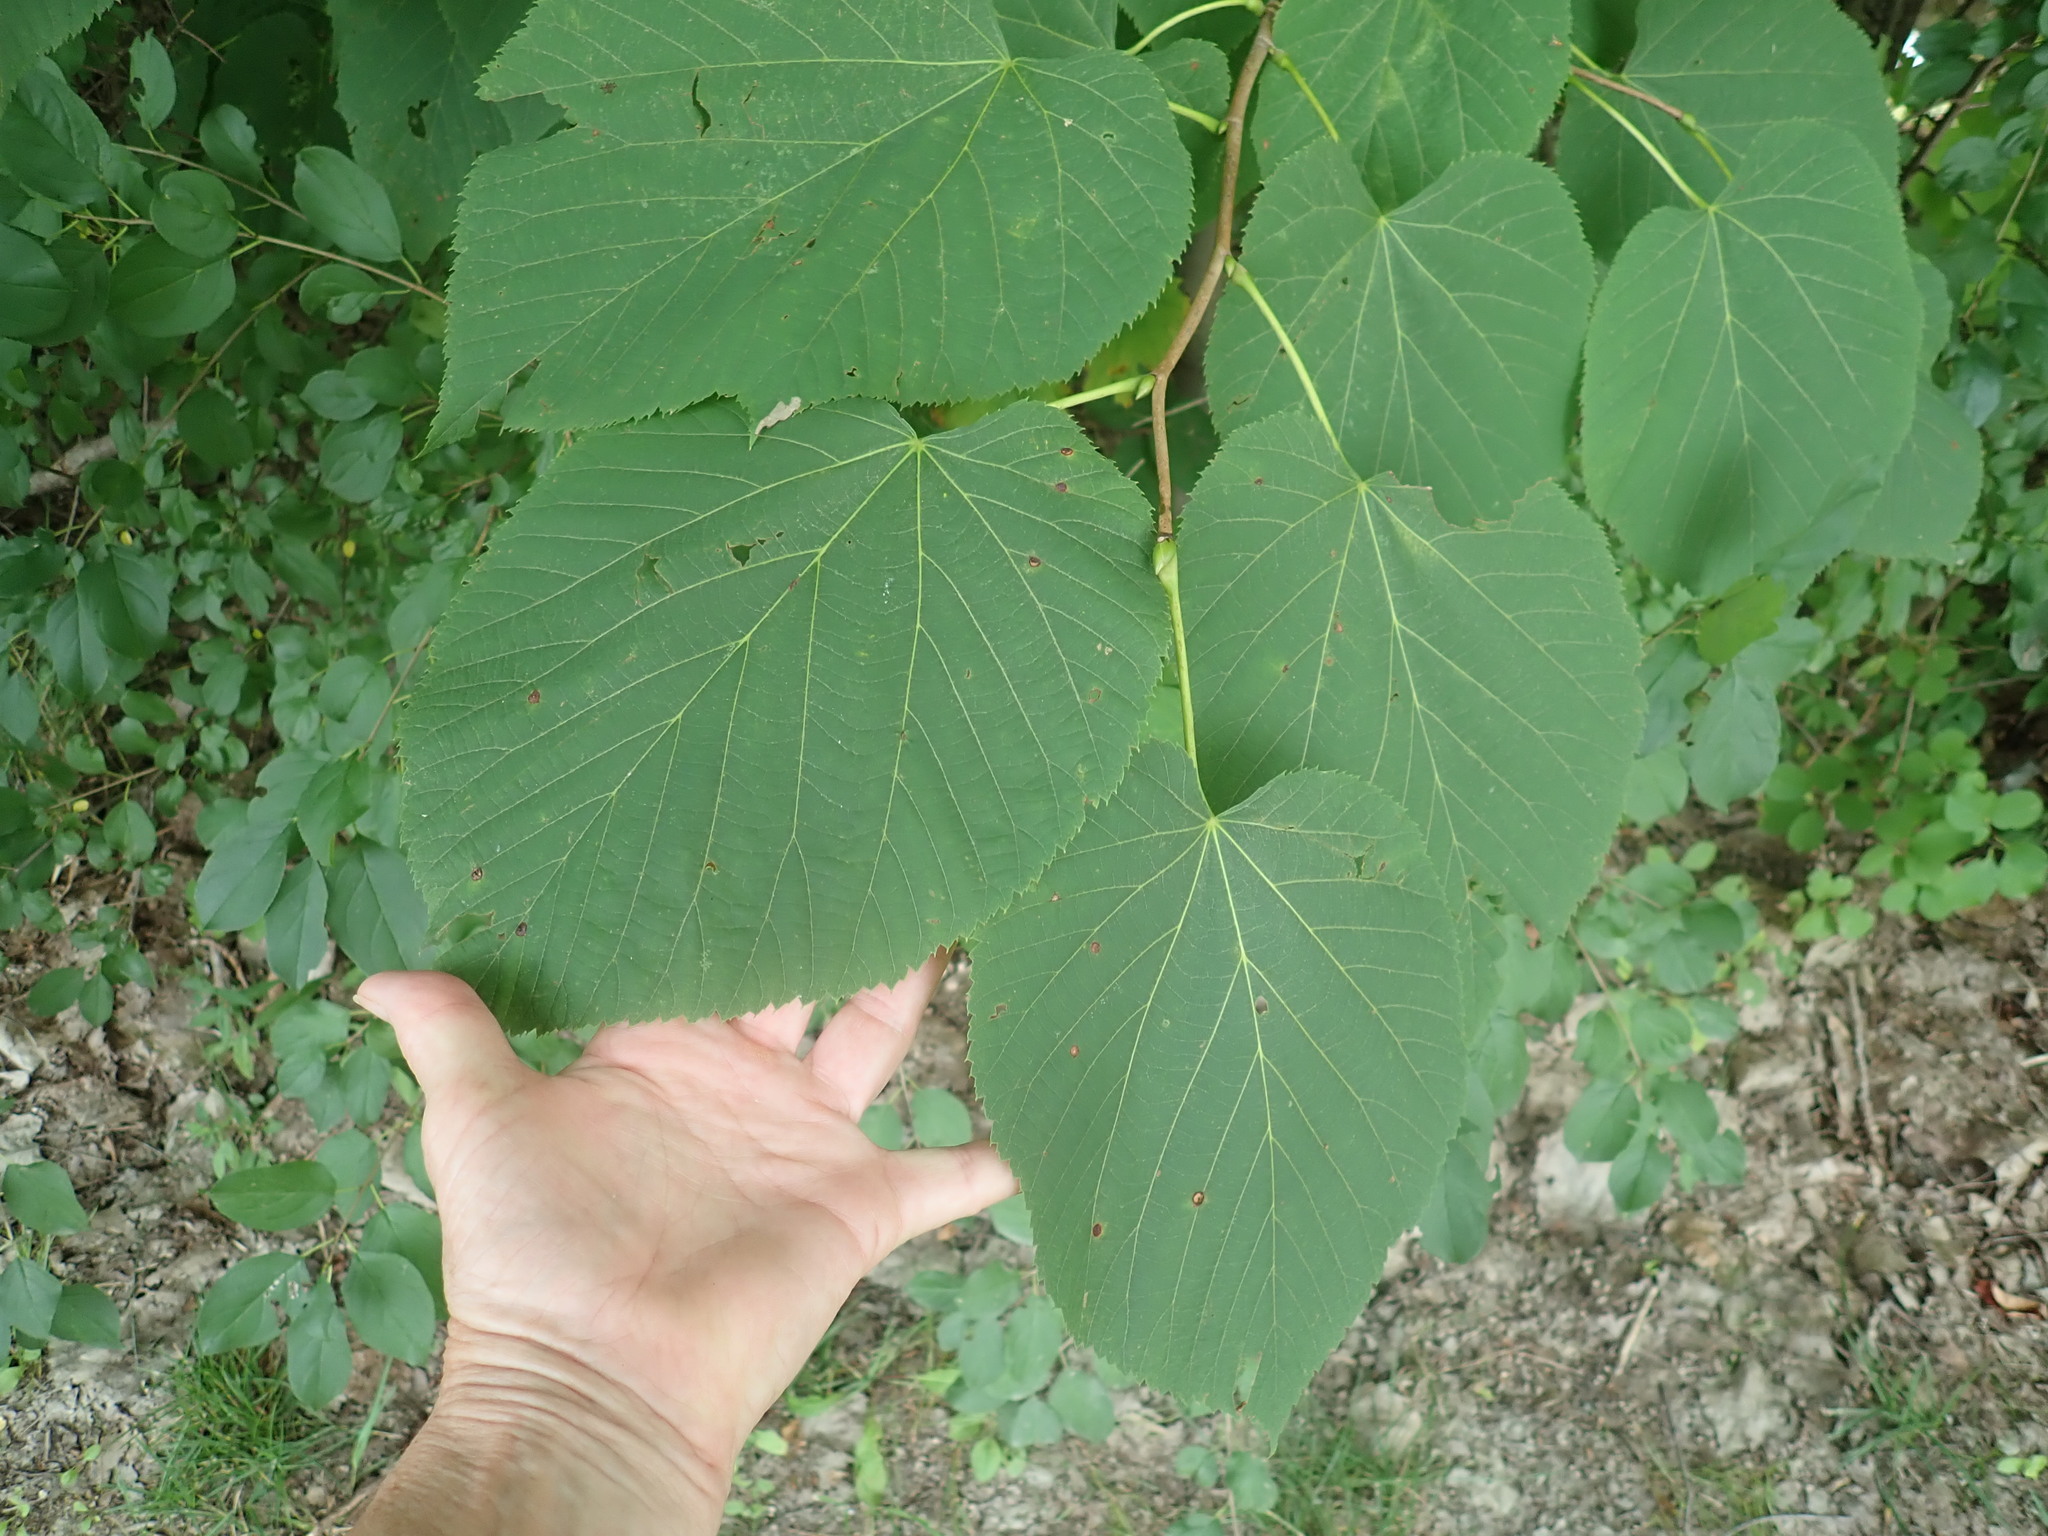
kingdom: Plantae
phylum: Tracheophyta
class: Magnoliopsida
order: Malvales
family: Malvaceae
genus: Tilia
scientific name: Tilia americana
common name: Basswood
